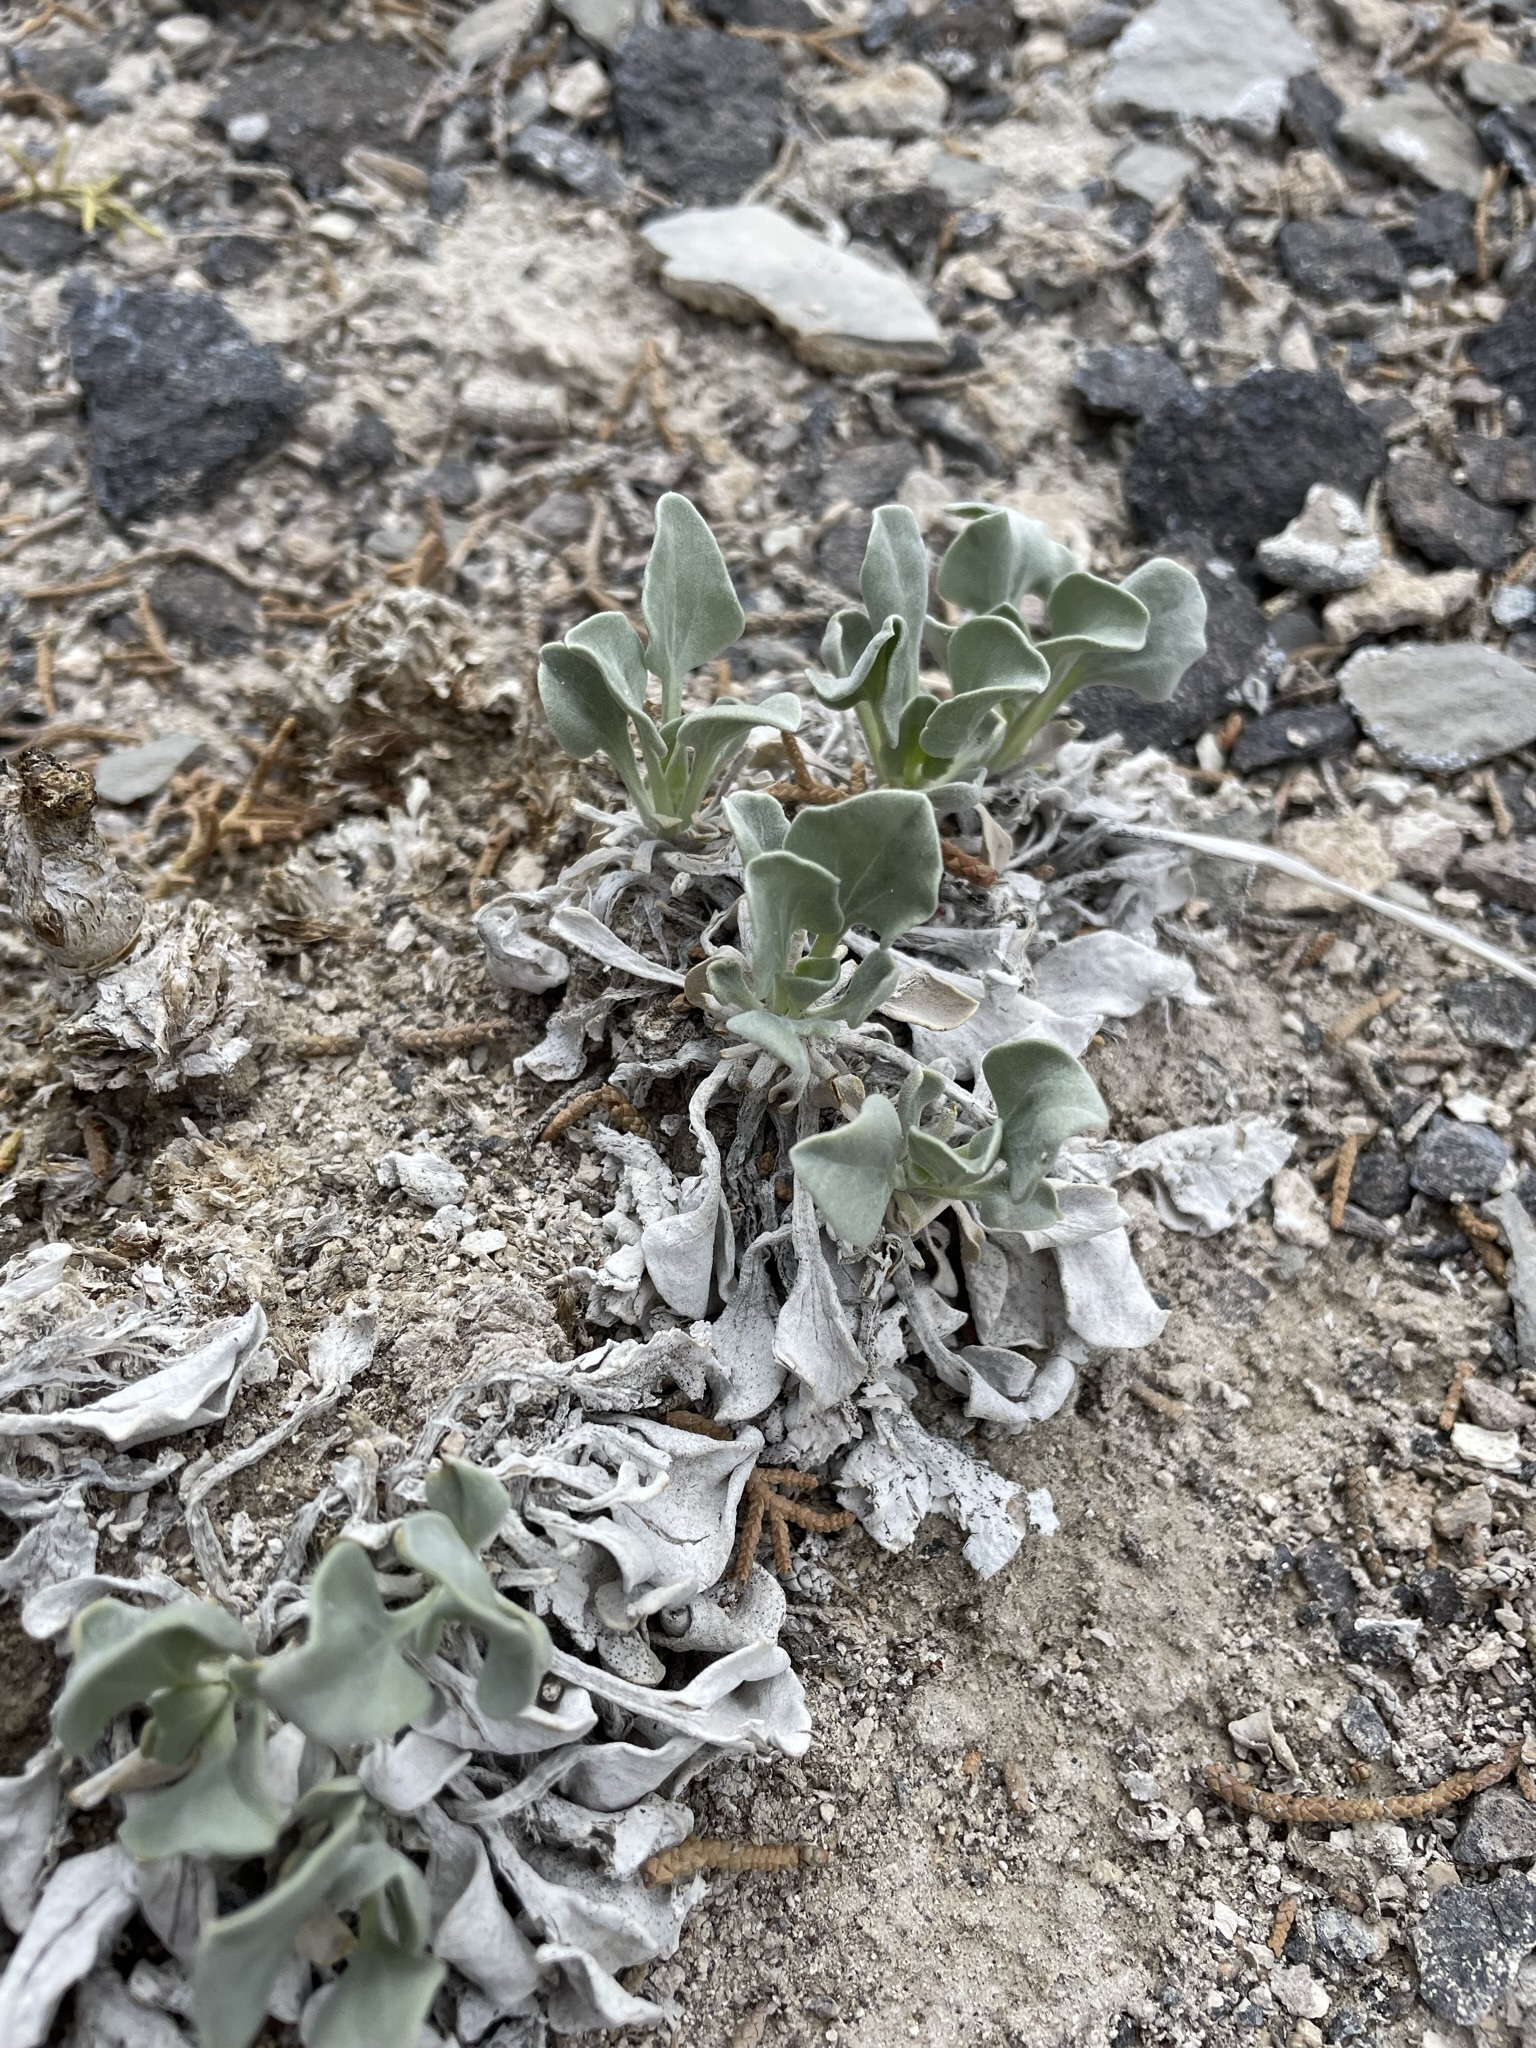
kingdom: Plantae
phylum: Tracheophyta
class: Magnoliopsida
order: Asterales
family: Asteraceae
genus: Enceliopsis
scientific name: Enceliopsis nudicaulis
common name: Naked-stem daisy
